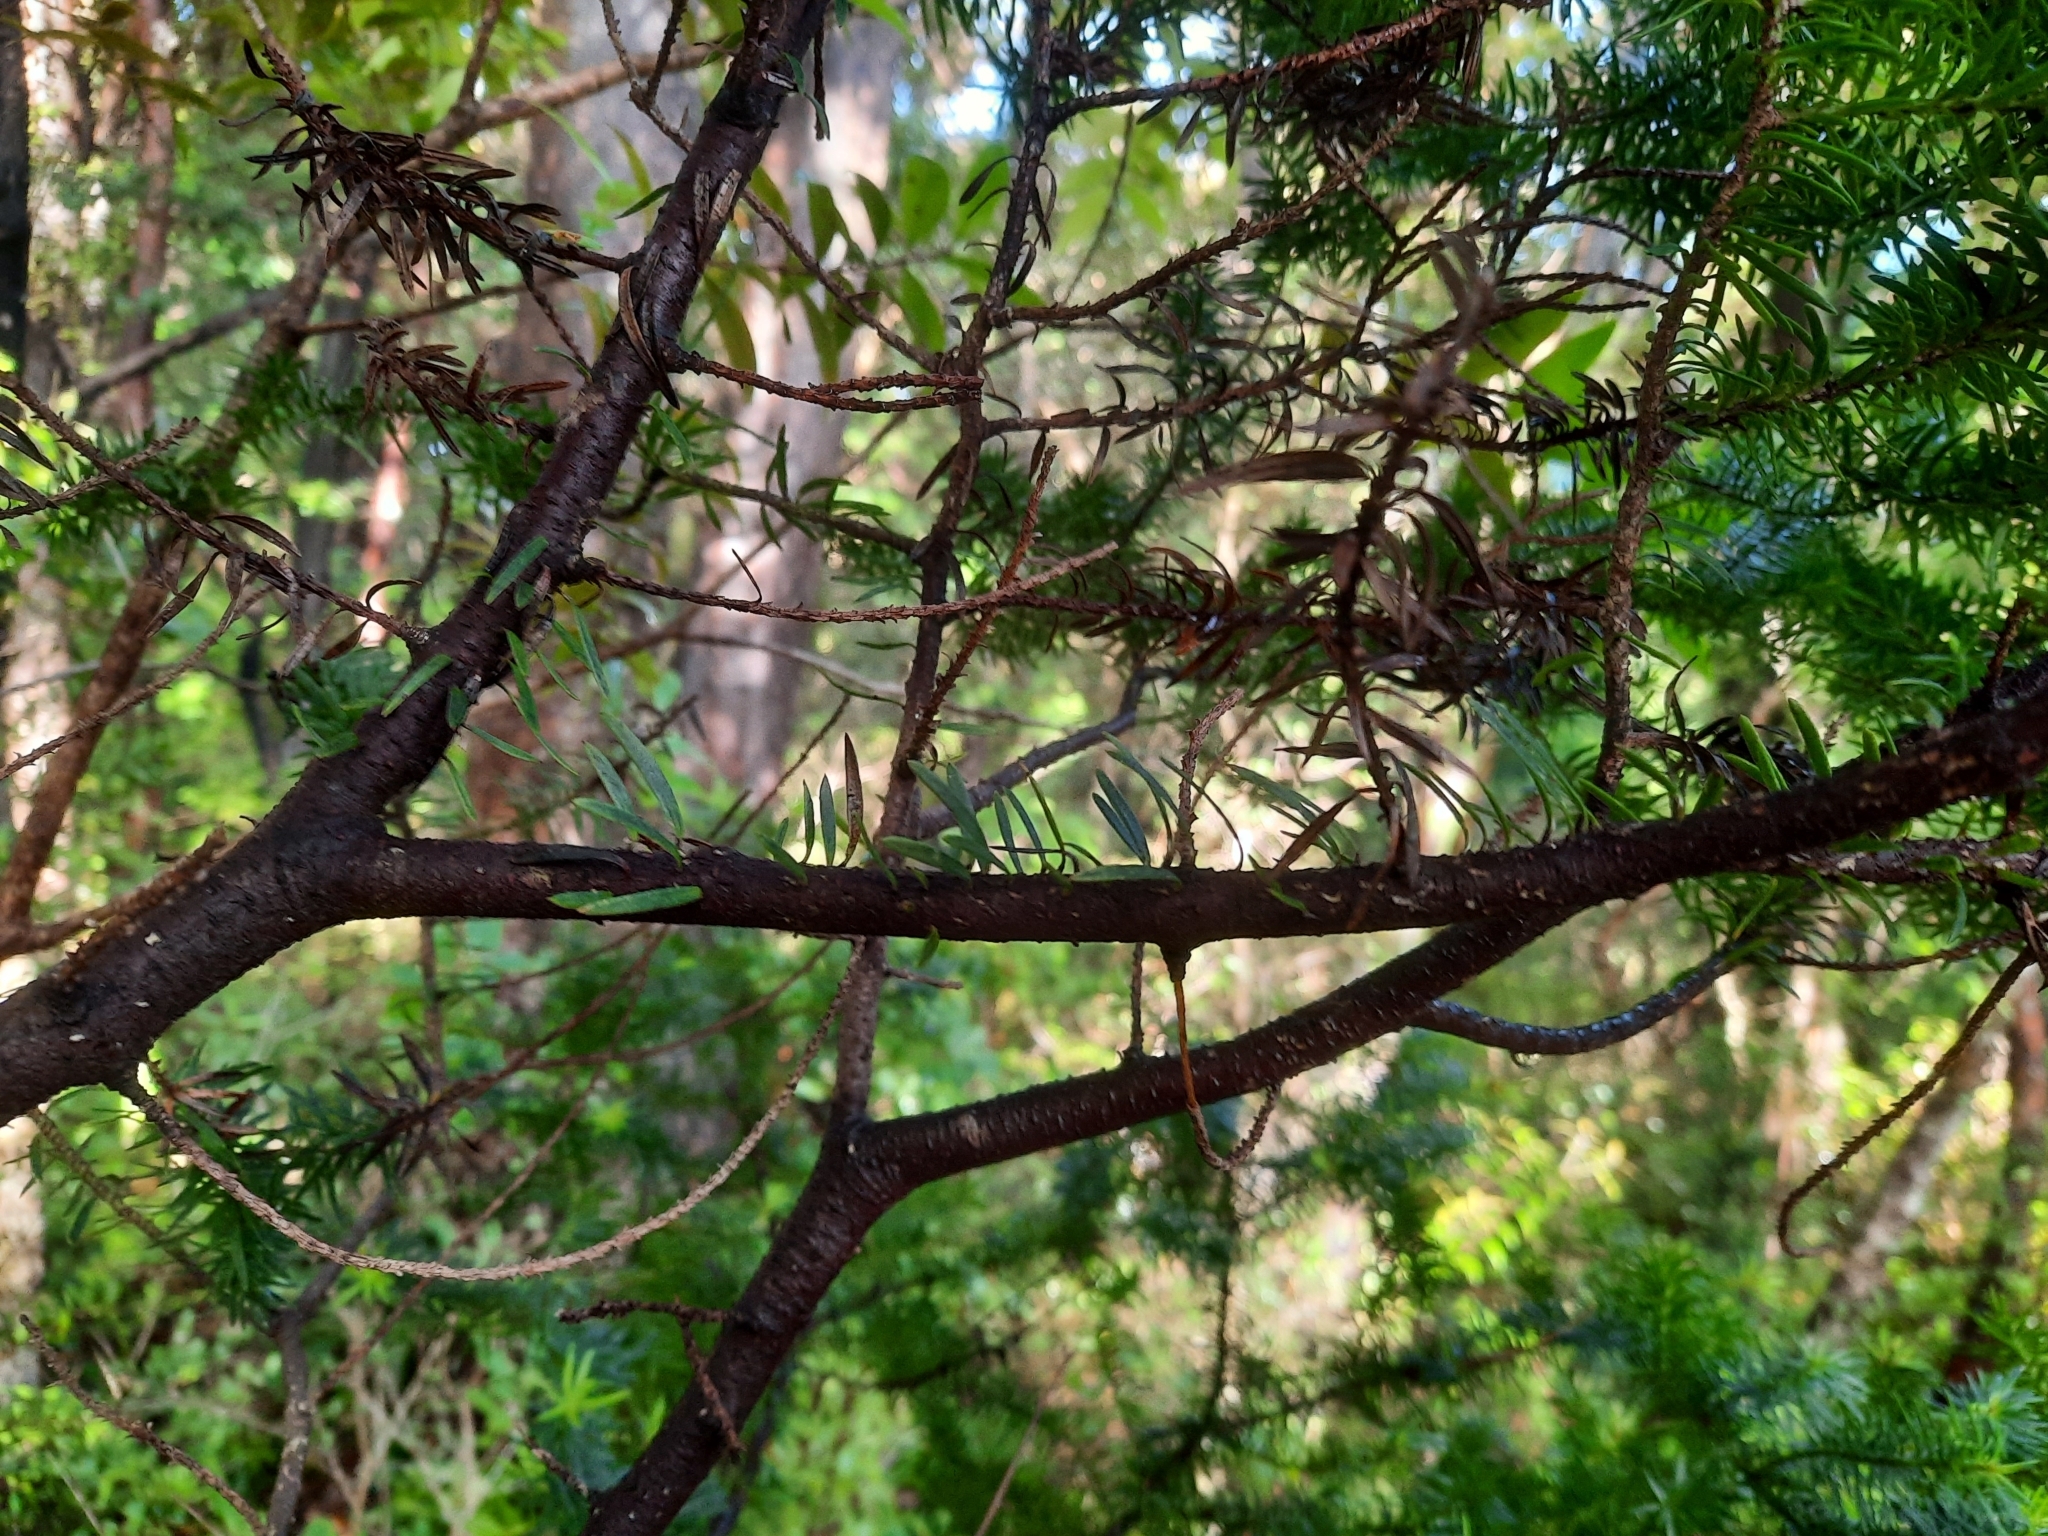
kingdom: Plantae
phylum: Tracheophyta
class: Pinopsida
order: Pinales
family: Podocarpaceae
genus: Halocarpus
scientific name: Halocarpus biformis
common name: Alpine tarwood
